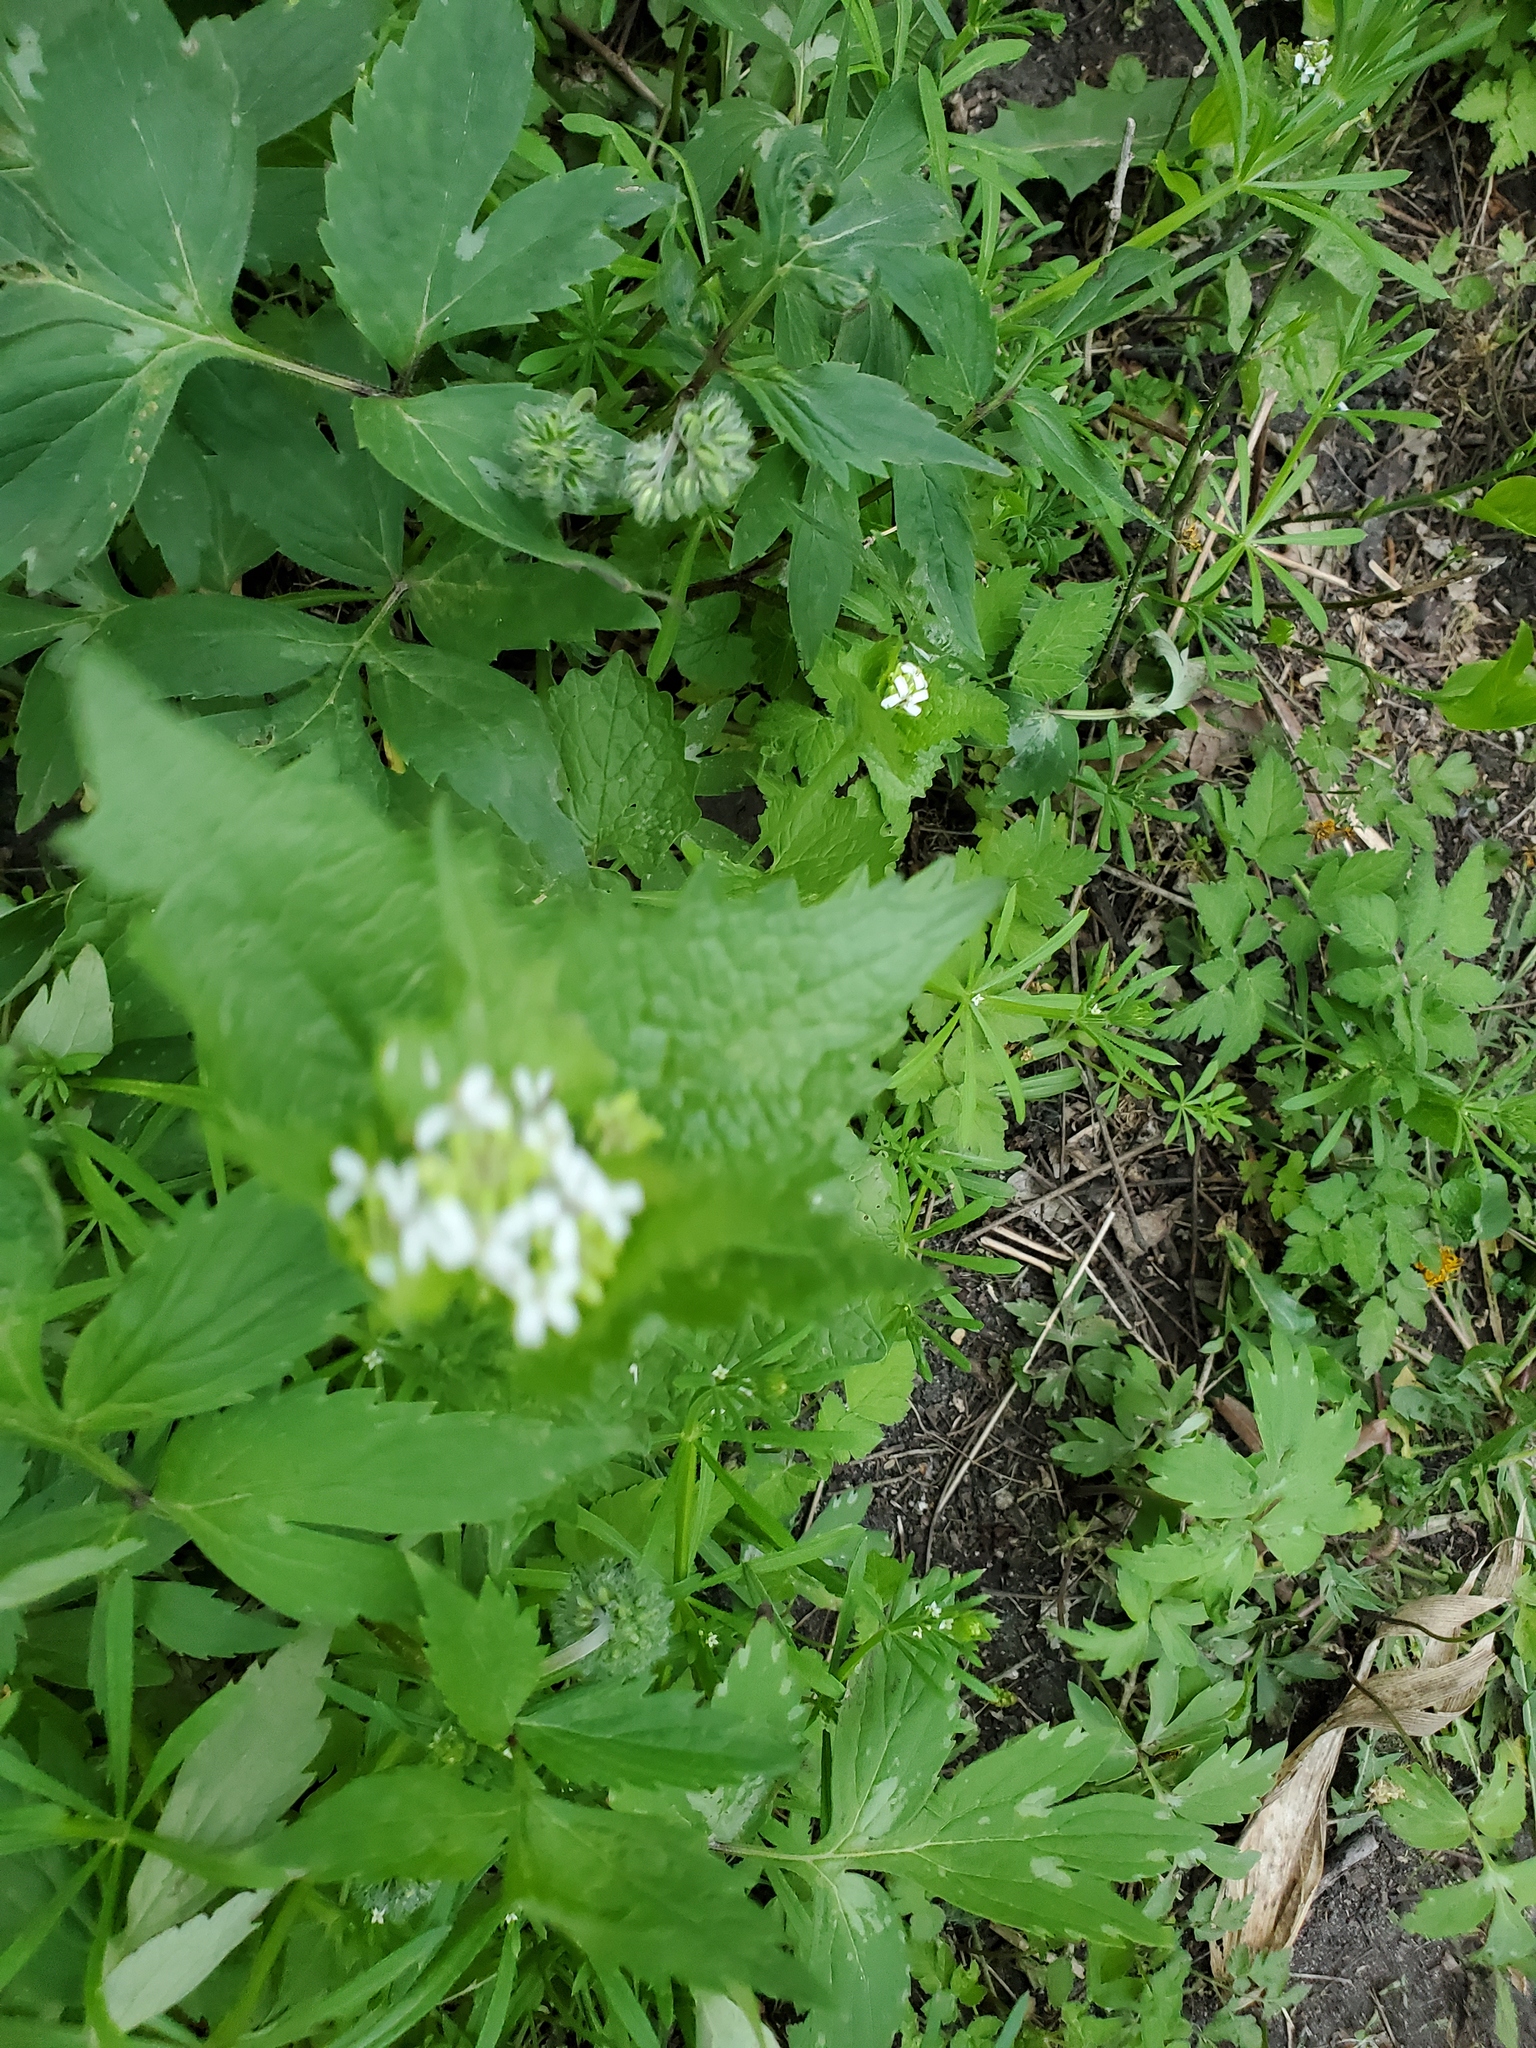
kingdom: Plantae
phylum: Tracheophyta
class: Magnoliopsida
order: Brassicales
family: Brassicaceae
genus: Alliaria
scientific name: Alliaria petiolata
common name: Garlic mustard
